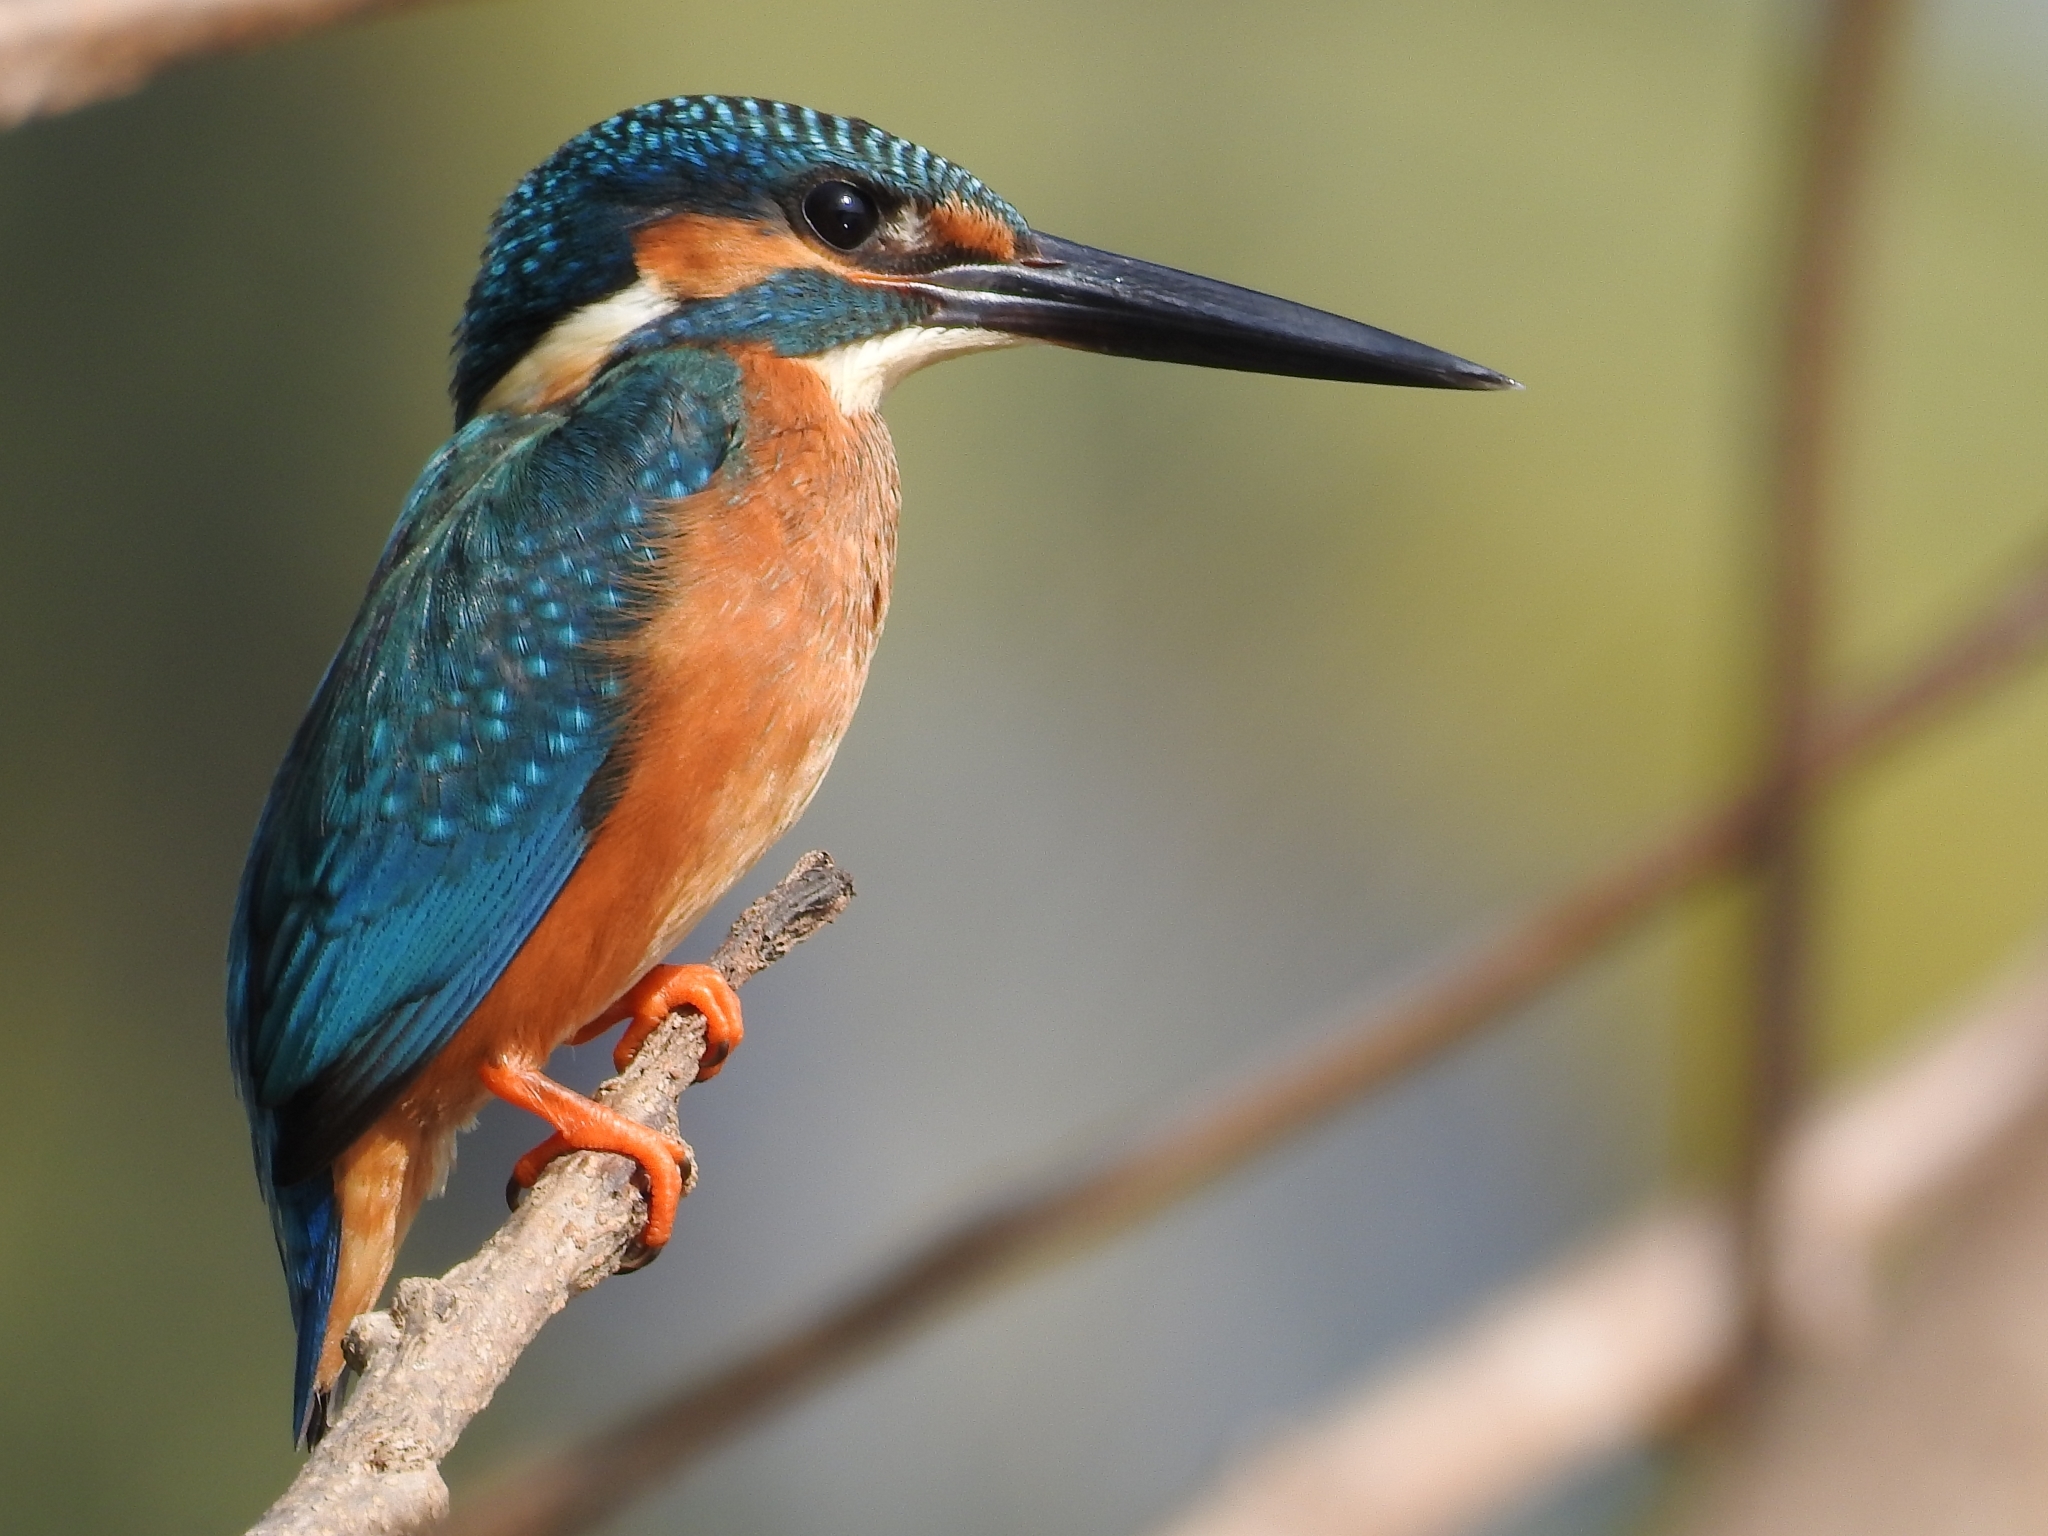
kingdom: Animalia
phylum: Chordata
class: Aves
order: Coraciiformes
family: Alcedinidae
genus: Alcedo
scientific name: Alcedo atthis
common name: Common kingfisher
